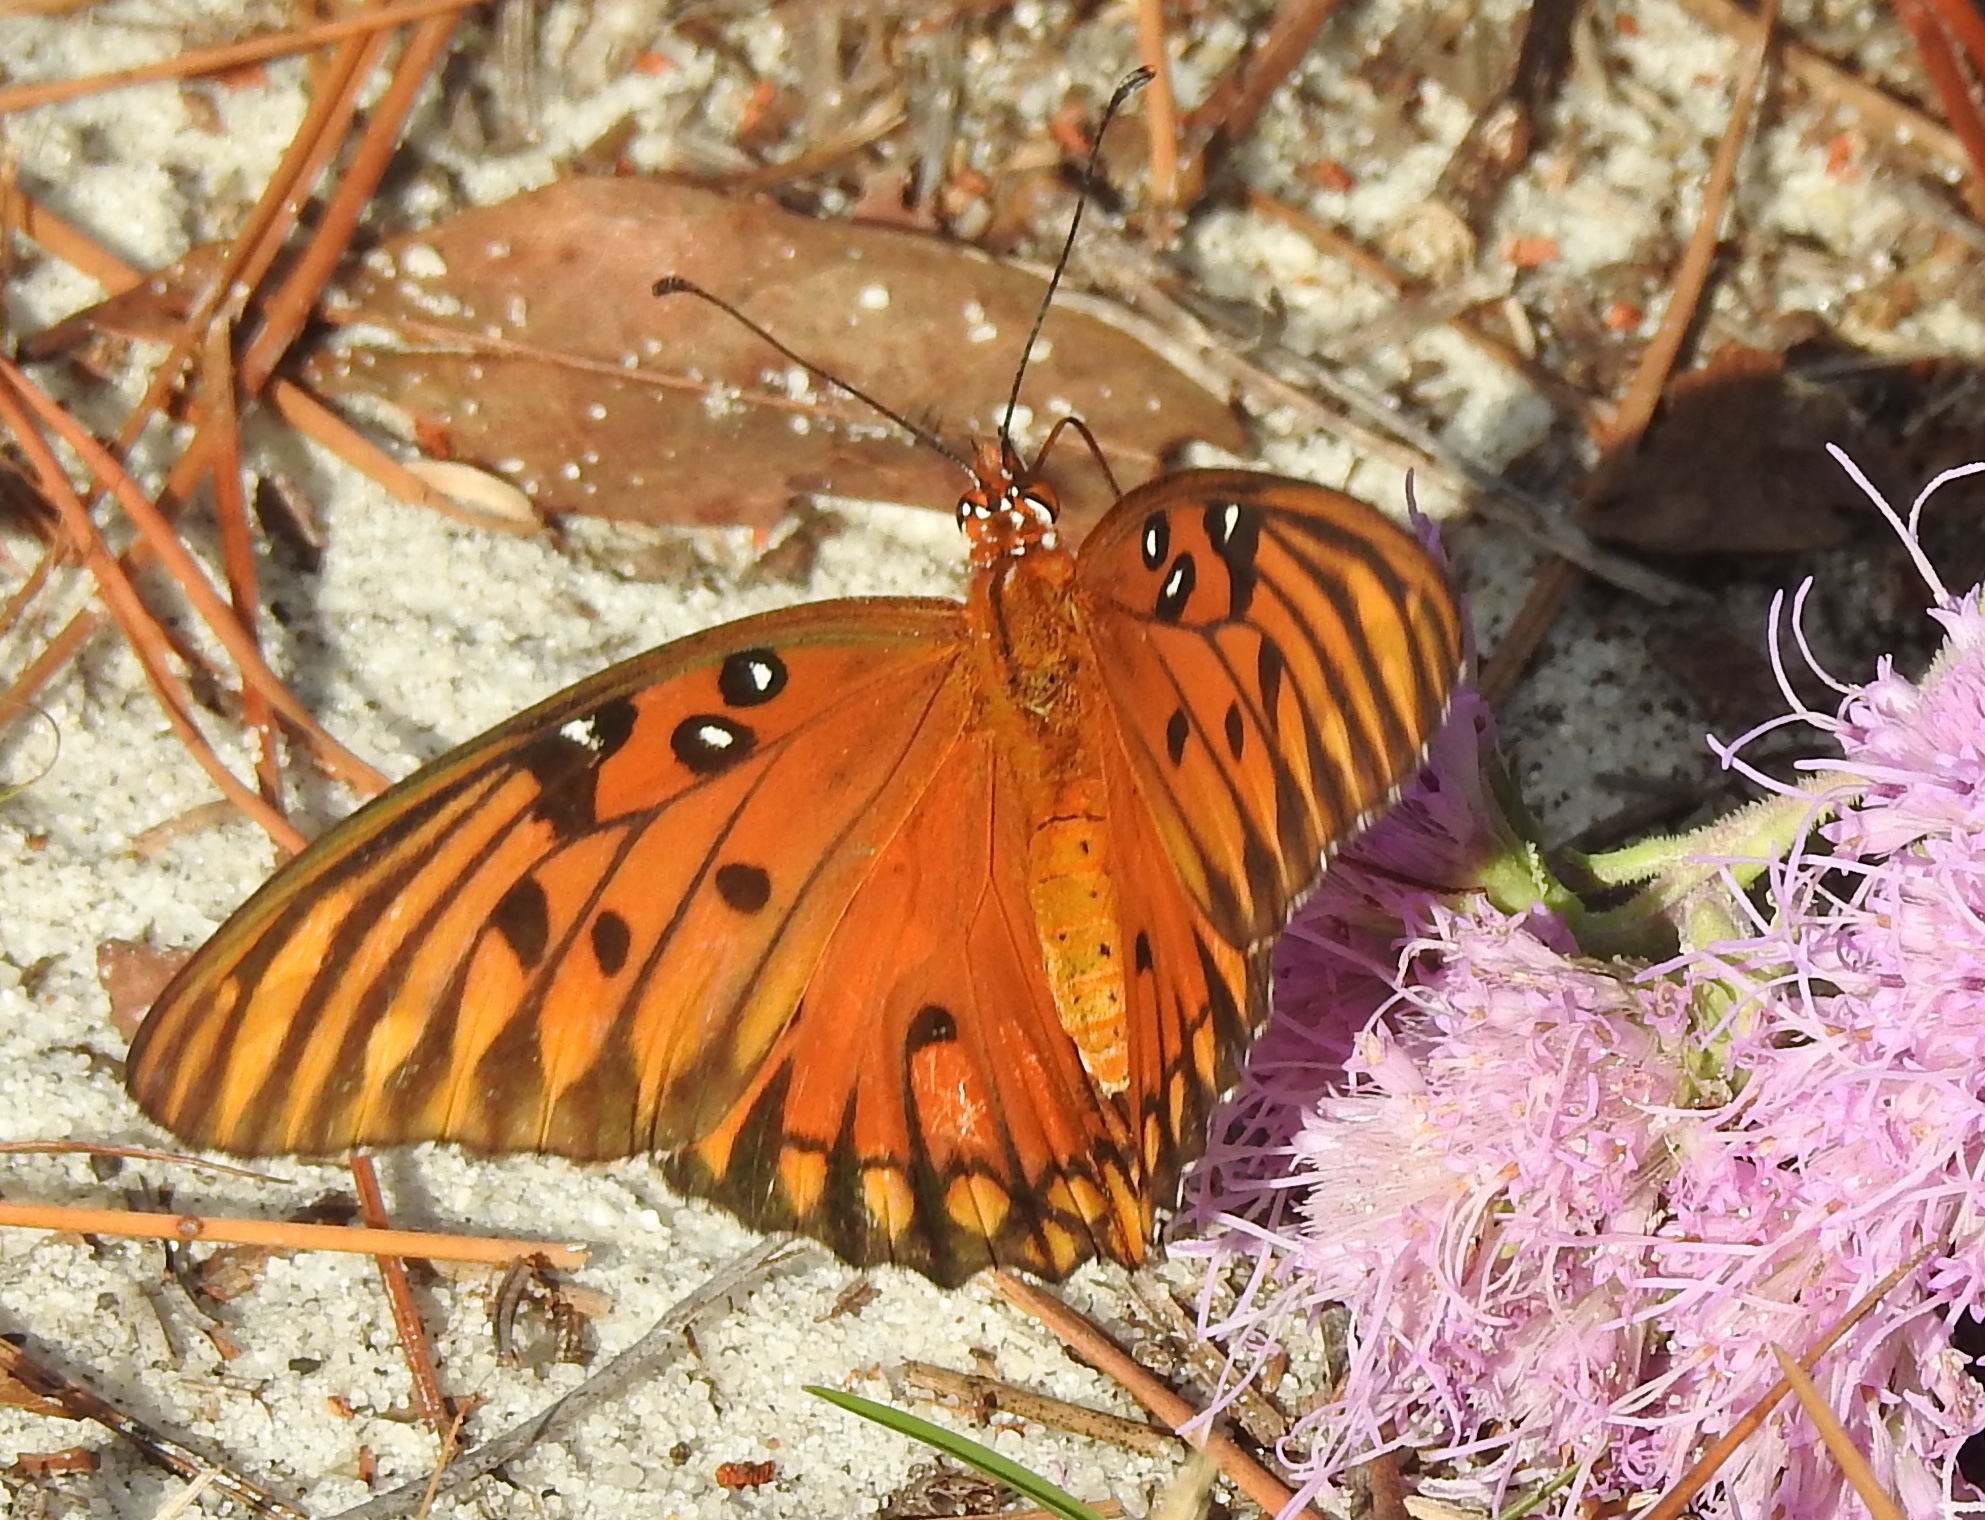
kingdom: Animalia
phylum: Arthropoda
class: Insecta
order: Lepidoptera
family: Nymphalidae
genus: Dione
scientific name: Dione vanillae
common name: Gulf fritillary
